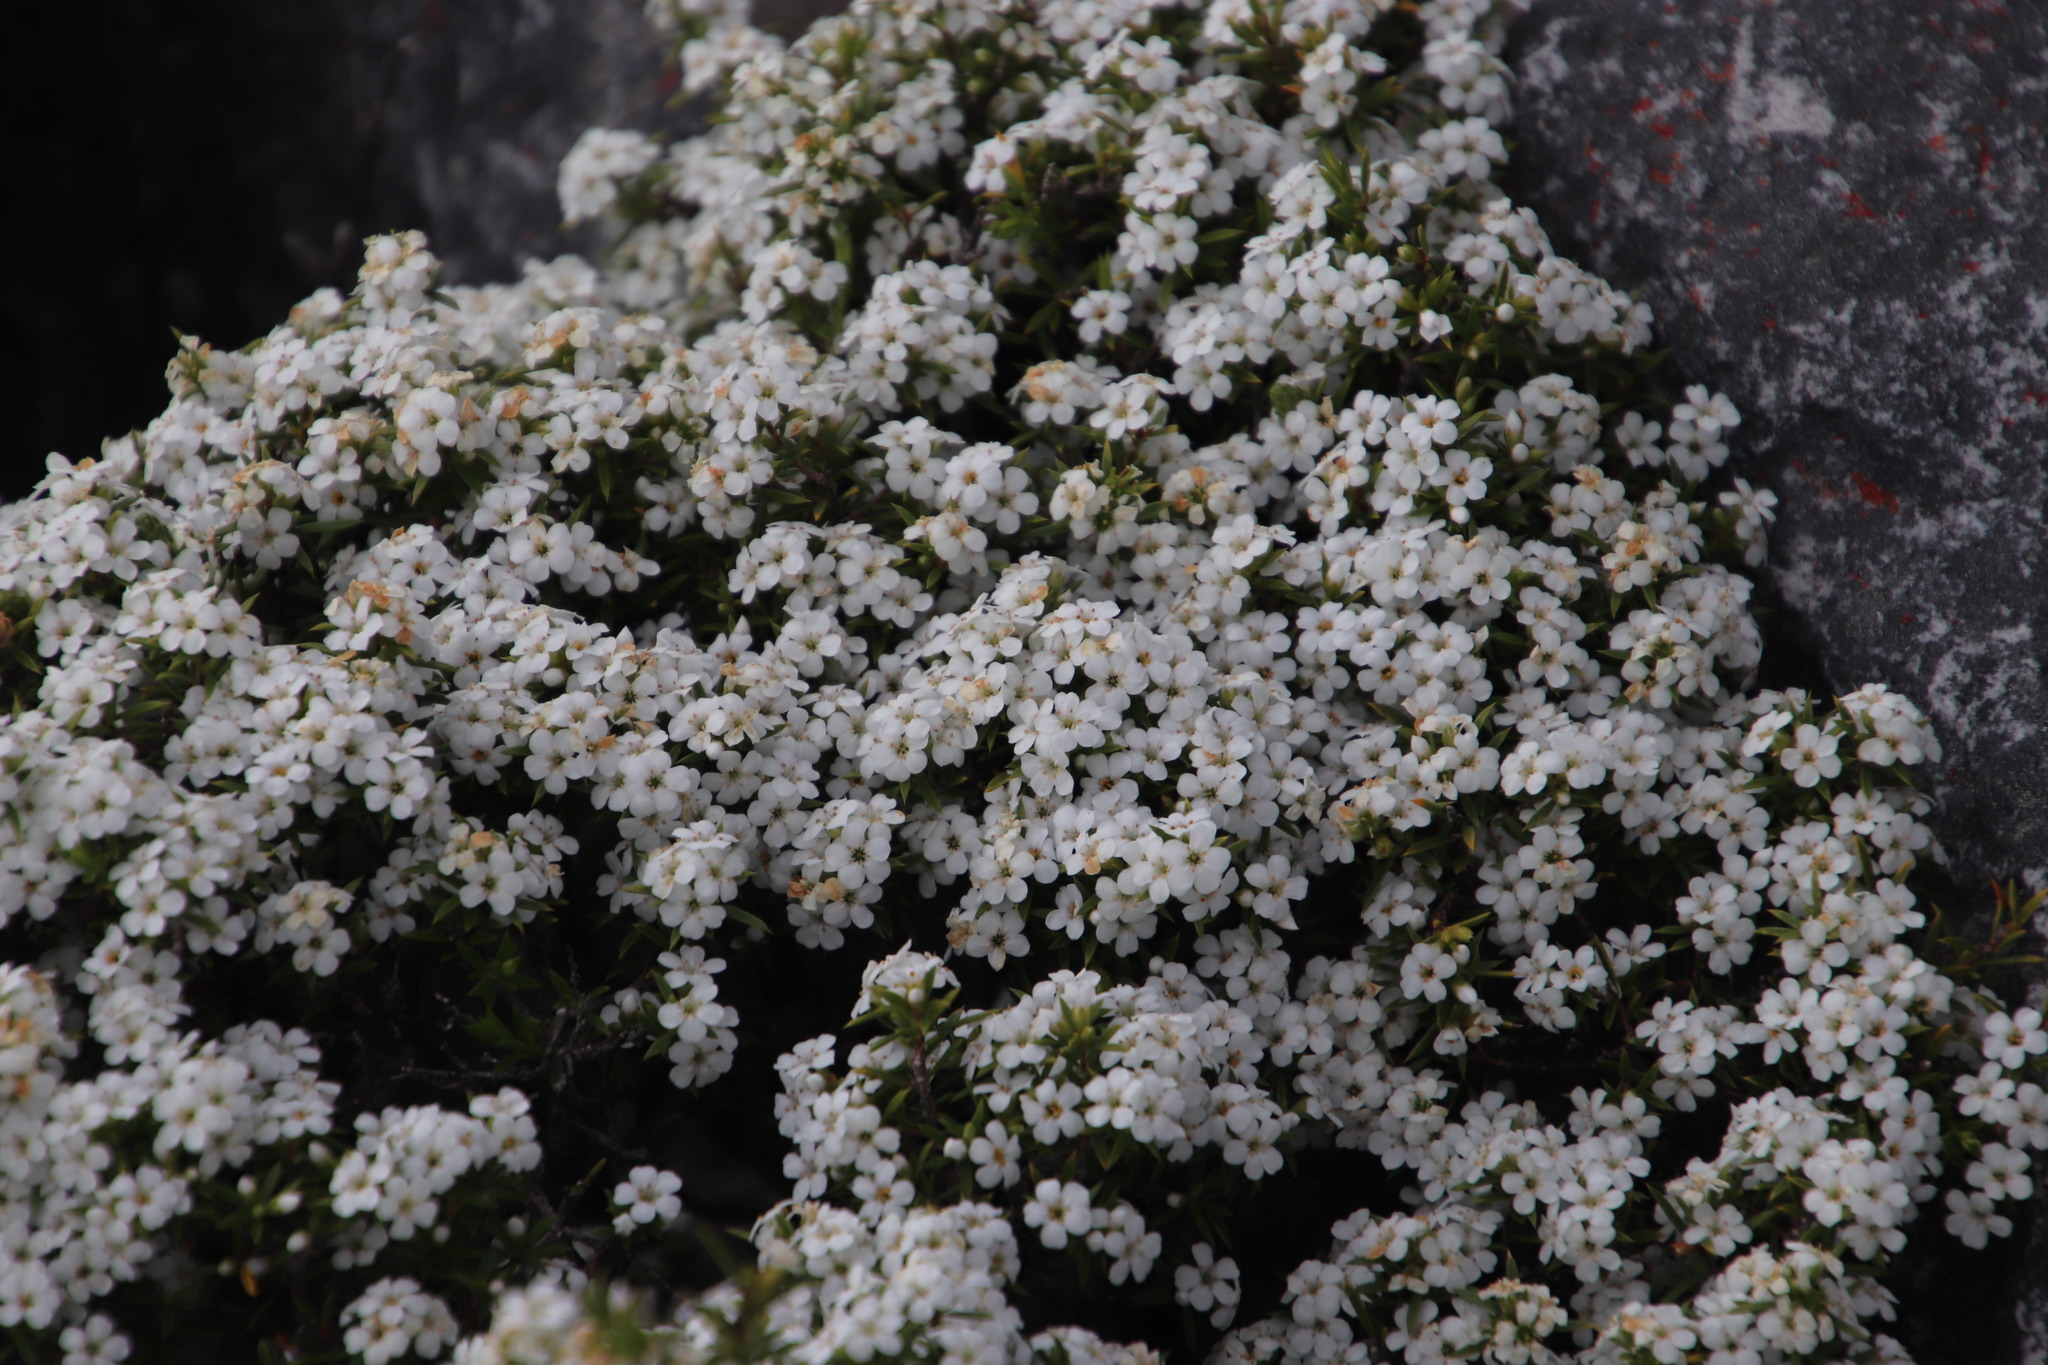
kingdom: Plantae
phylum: Tracheophyta
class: Magnoliopsida
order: Sapindales
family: Rutaceae
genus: Coleonema
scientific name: Coleonema album
